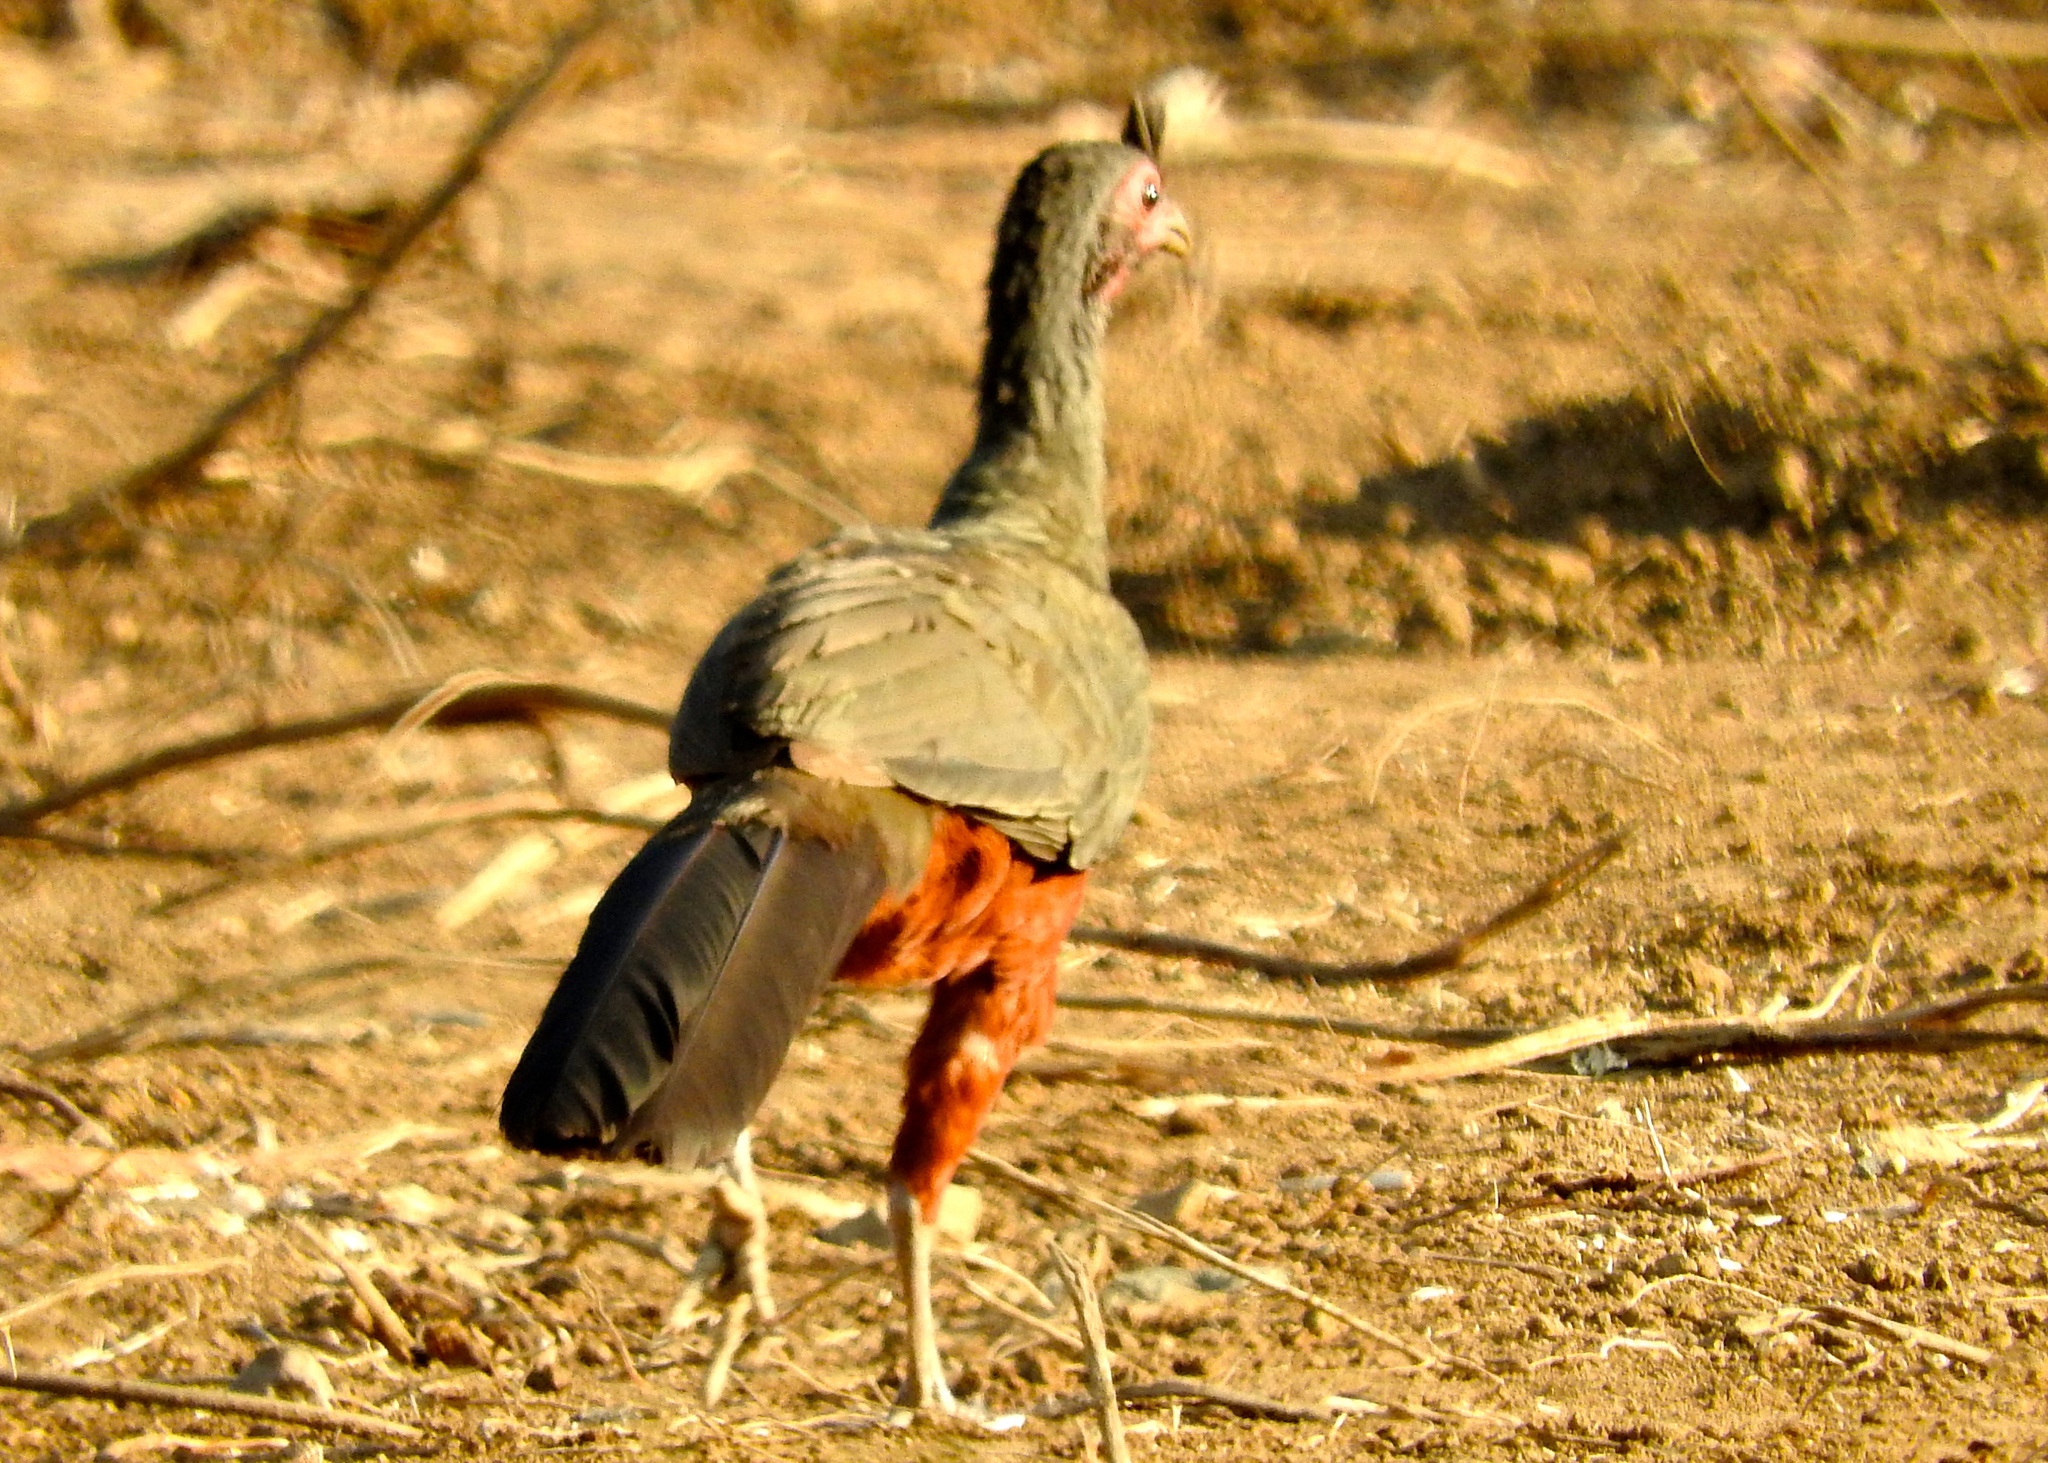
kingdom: Animalia
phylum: Chordata
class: Aves
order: Galliformes
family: Cracidae
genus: Ortalis
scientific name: Ortalis wagleri
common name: Rufous-bellied chachalaca
